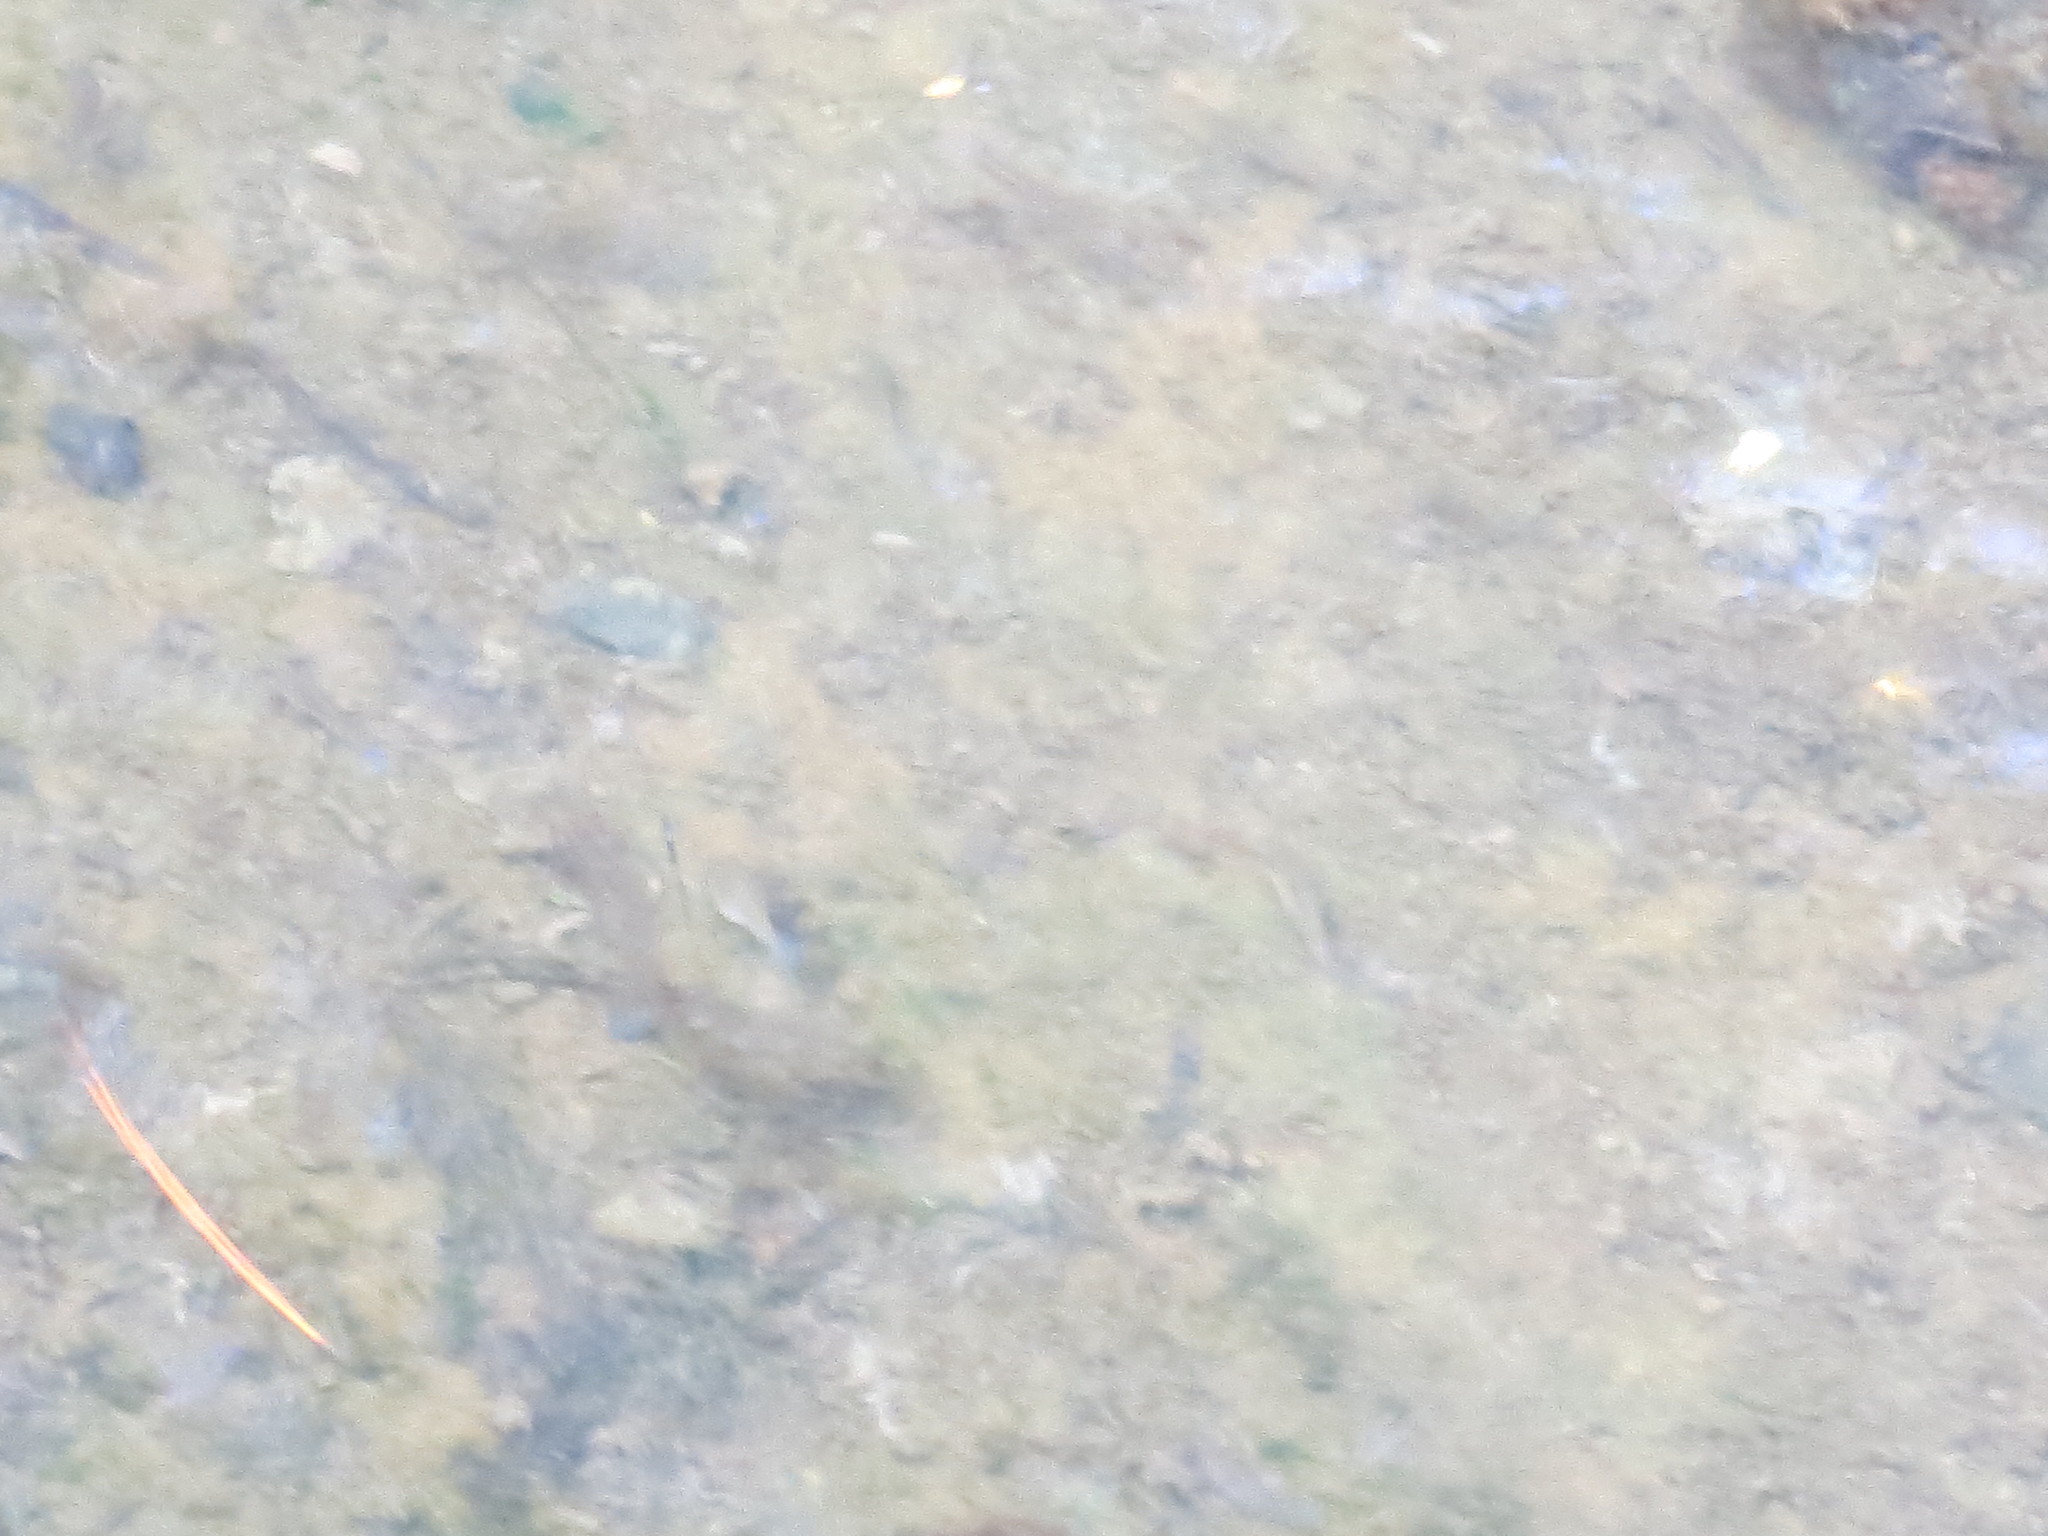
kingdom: Animalia
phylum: Chordata
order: Cyprinodontiformes
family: Poeciliidae
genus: Poecilia
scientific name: Poecilia latipinna
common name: Sailfin molly
